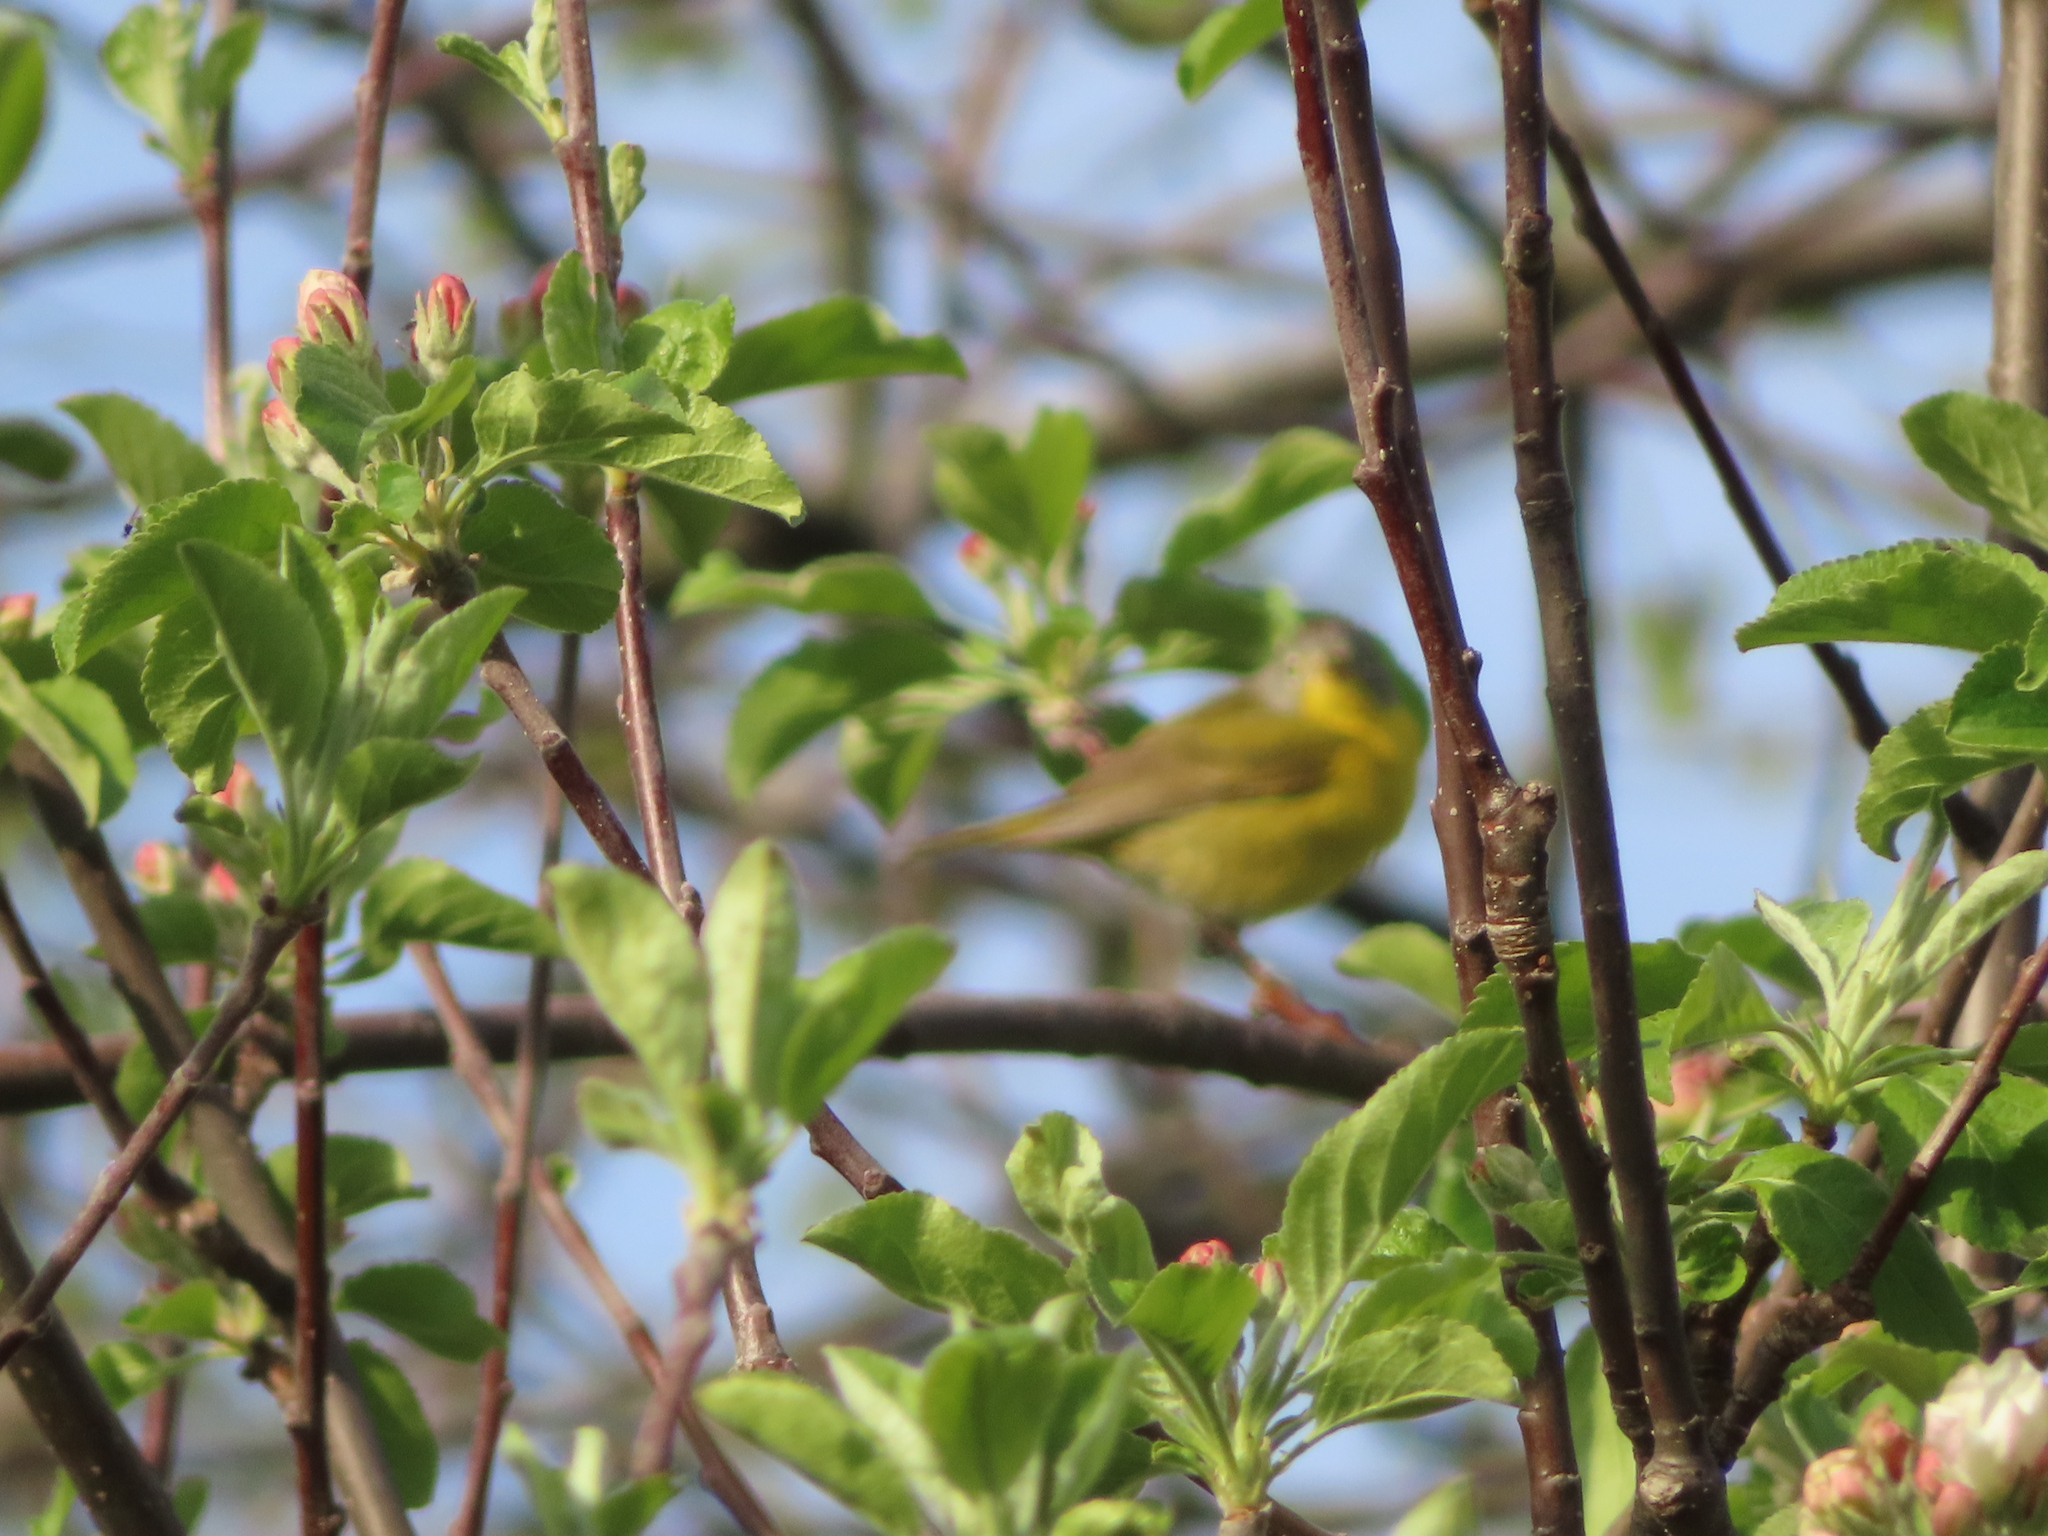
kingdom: Animalia
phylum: Chordata
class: Aves
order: Passeriformes
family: Parulidae
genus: Leiothlypis
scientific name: Leiothlypis ruficapilla
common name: Nashville warbler
